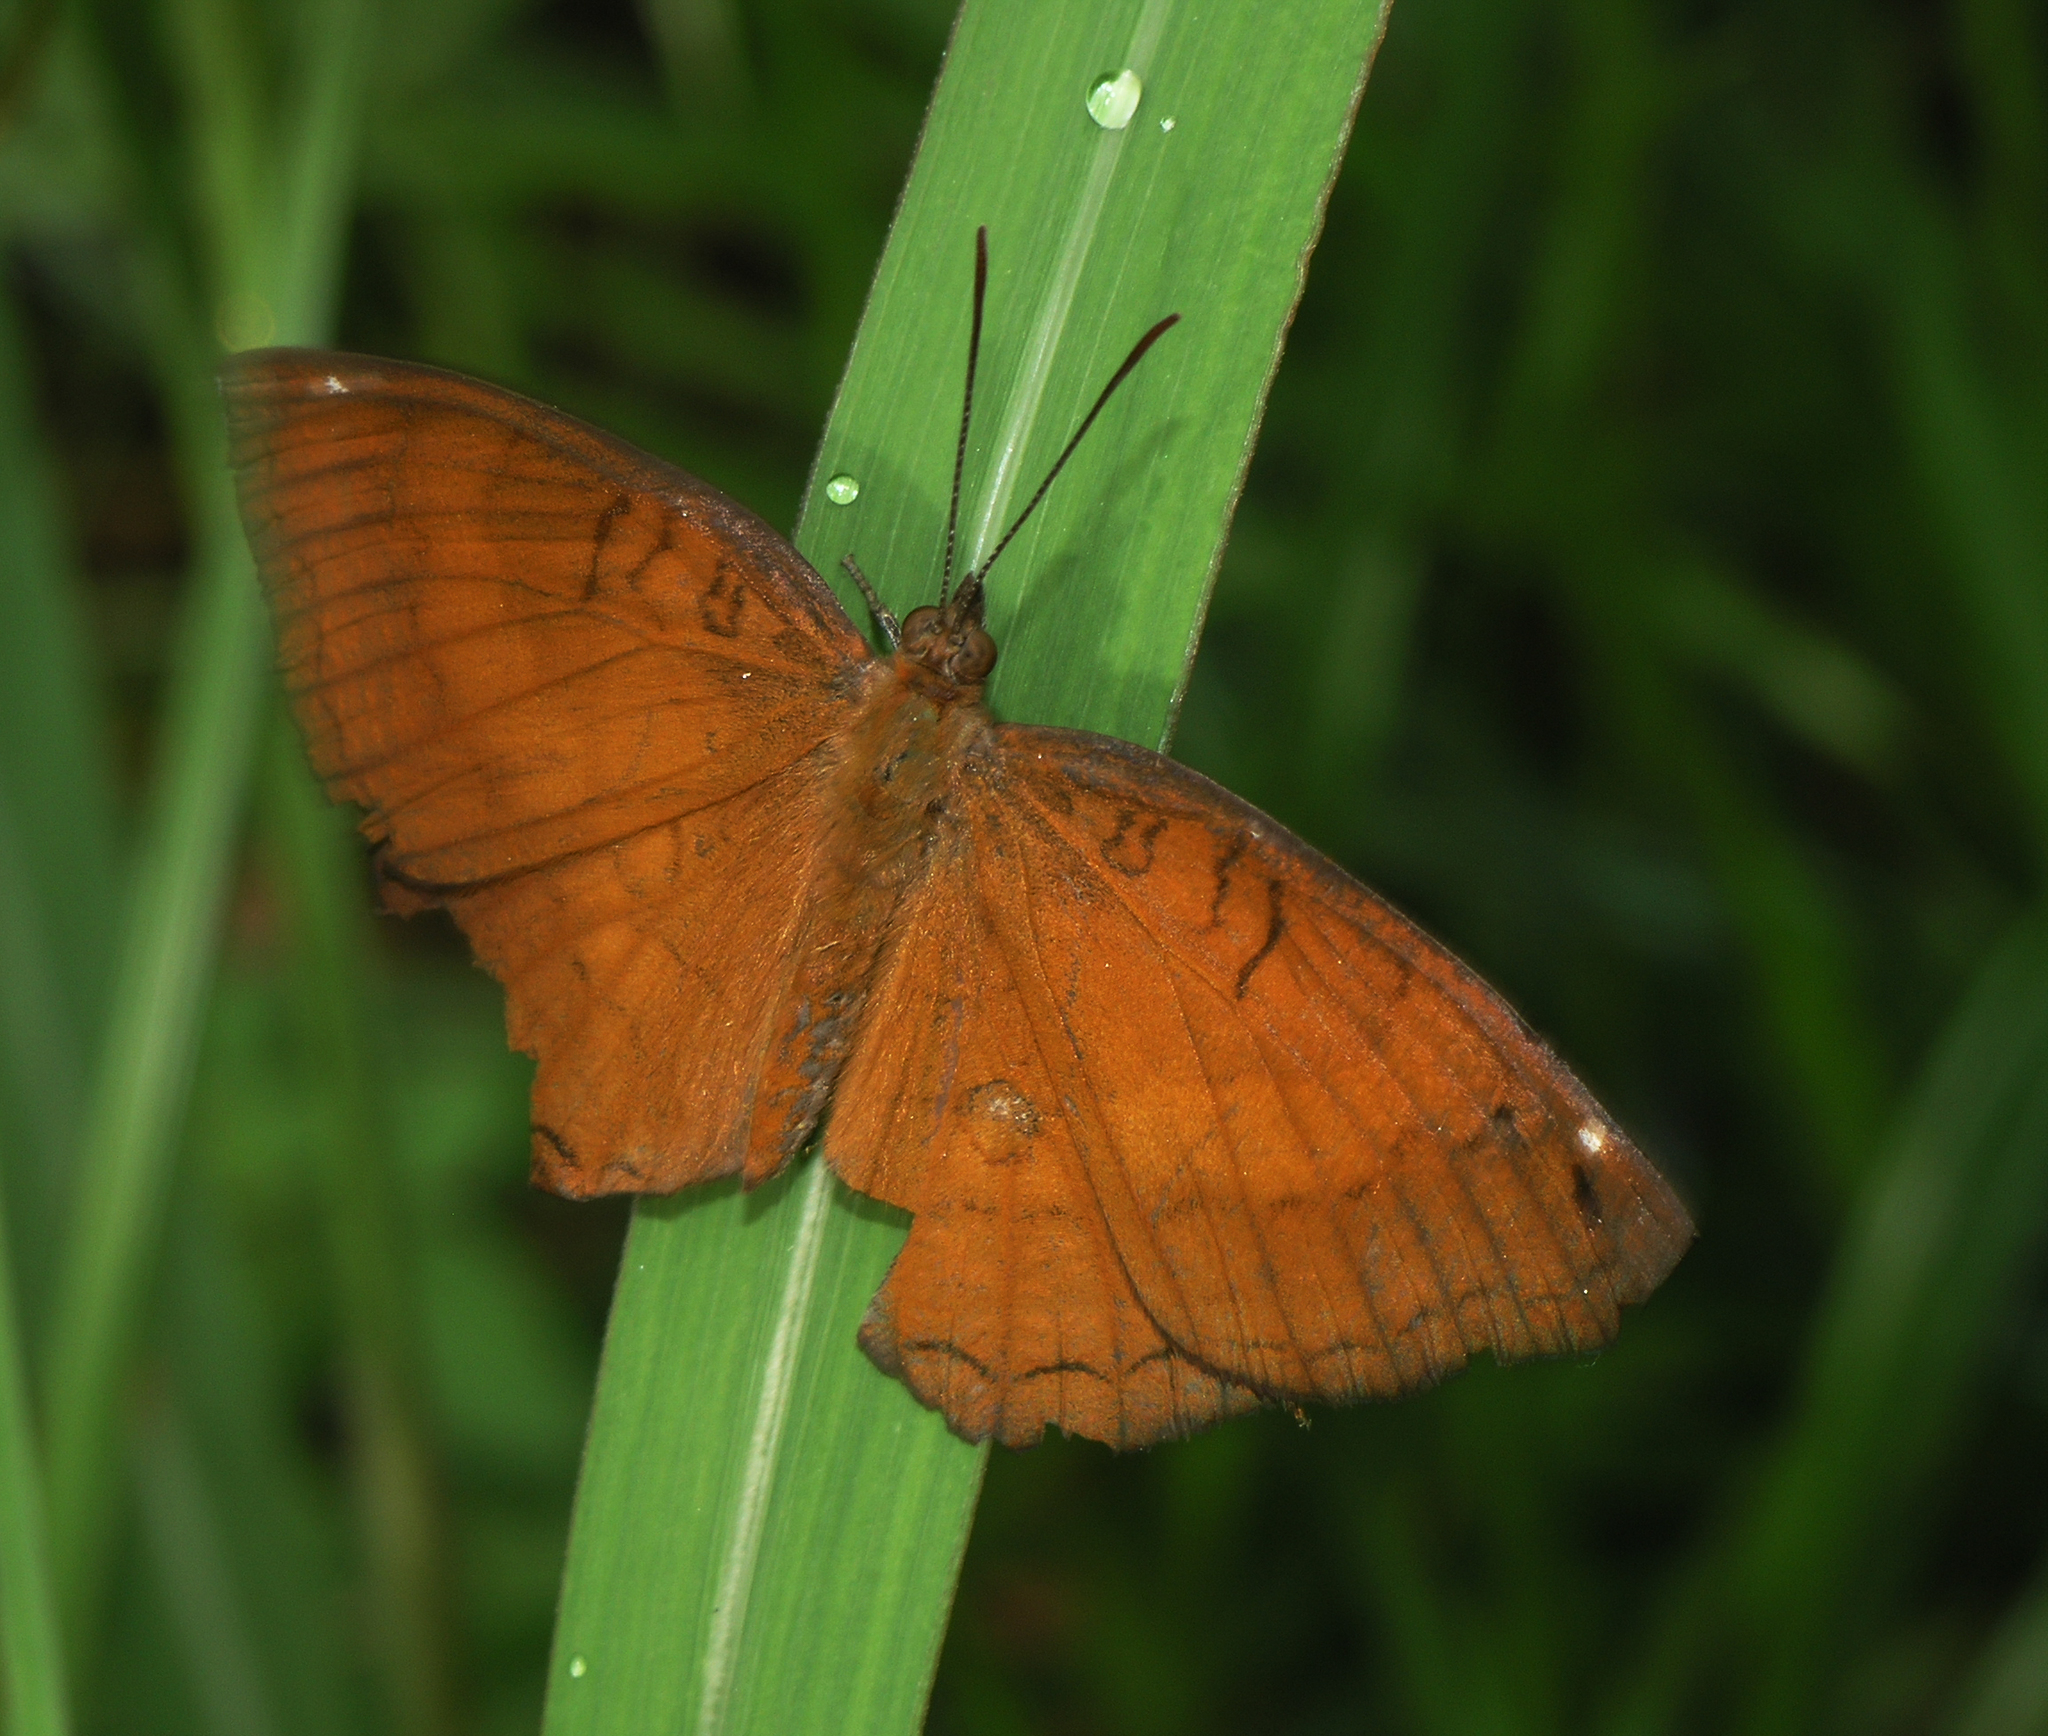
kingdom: Animalia
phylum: Arthropoda
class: Insecta
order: Lepidoptera
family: Nymphalidae
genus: Ariadne
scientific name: Ariadne ariadne
